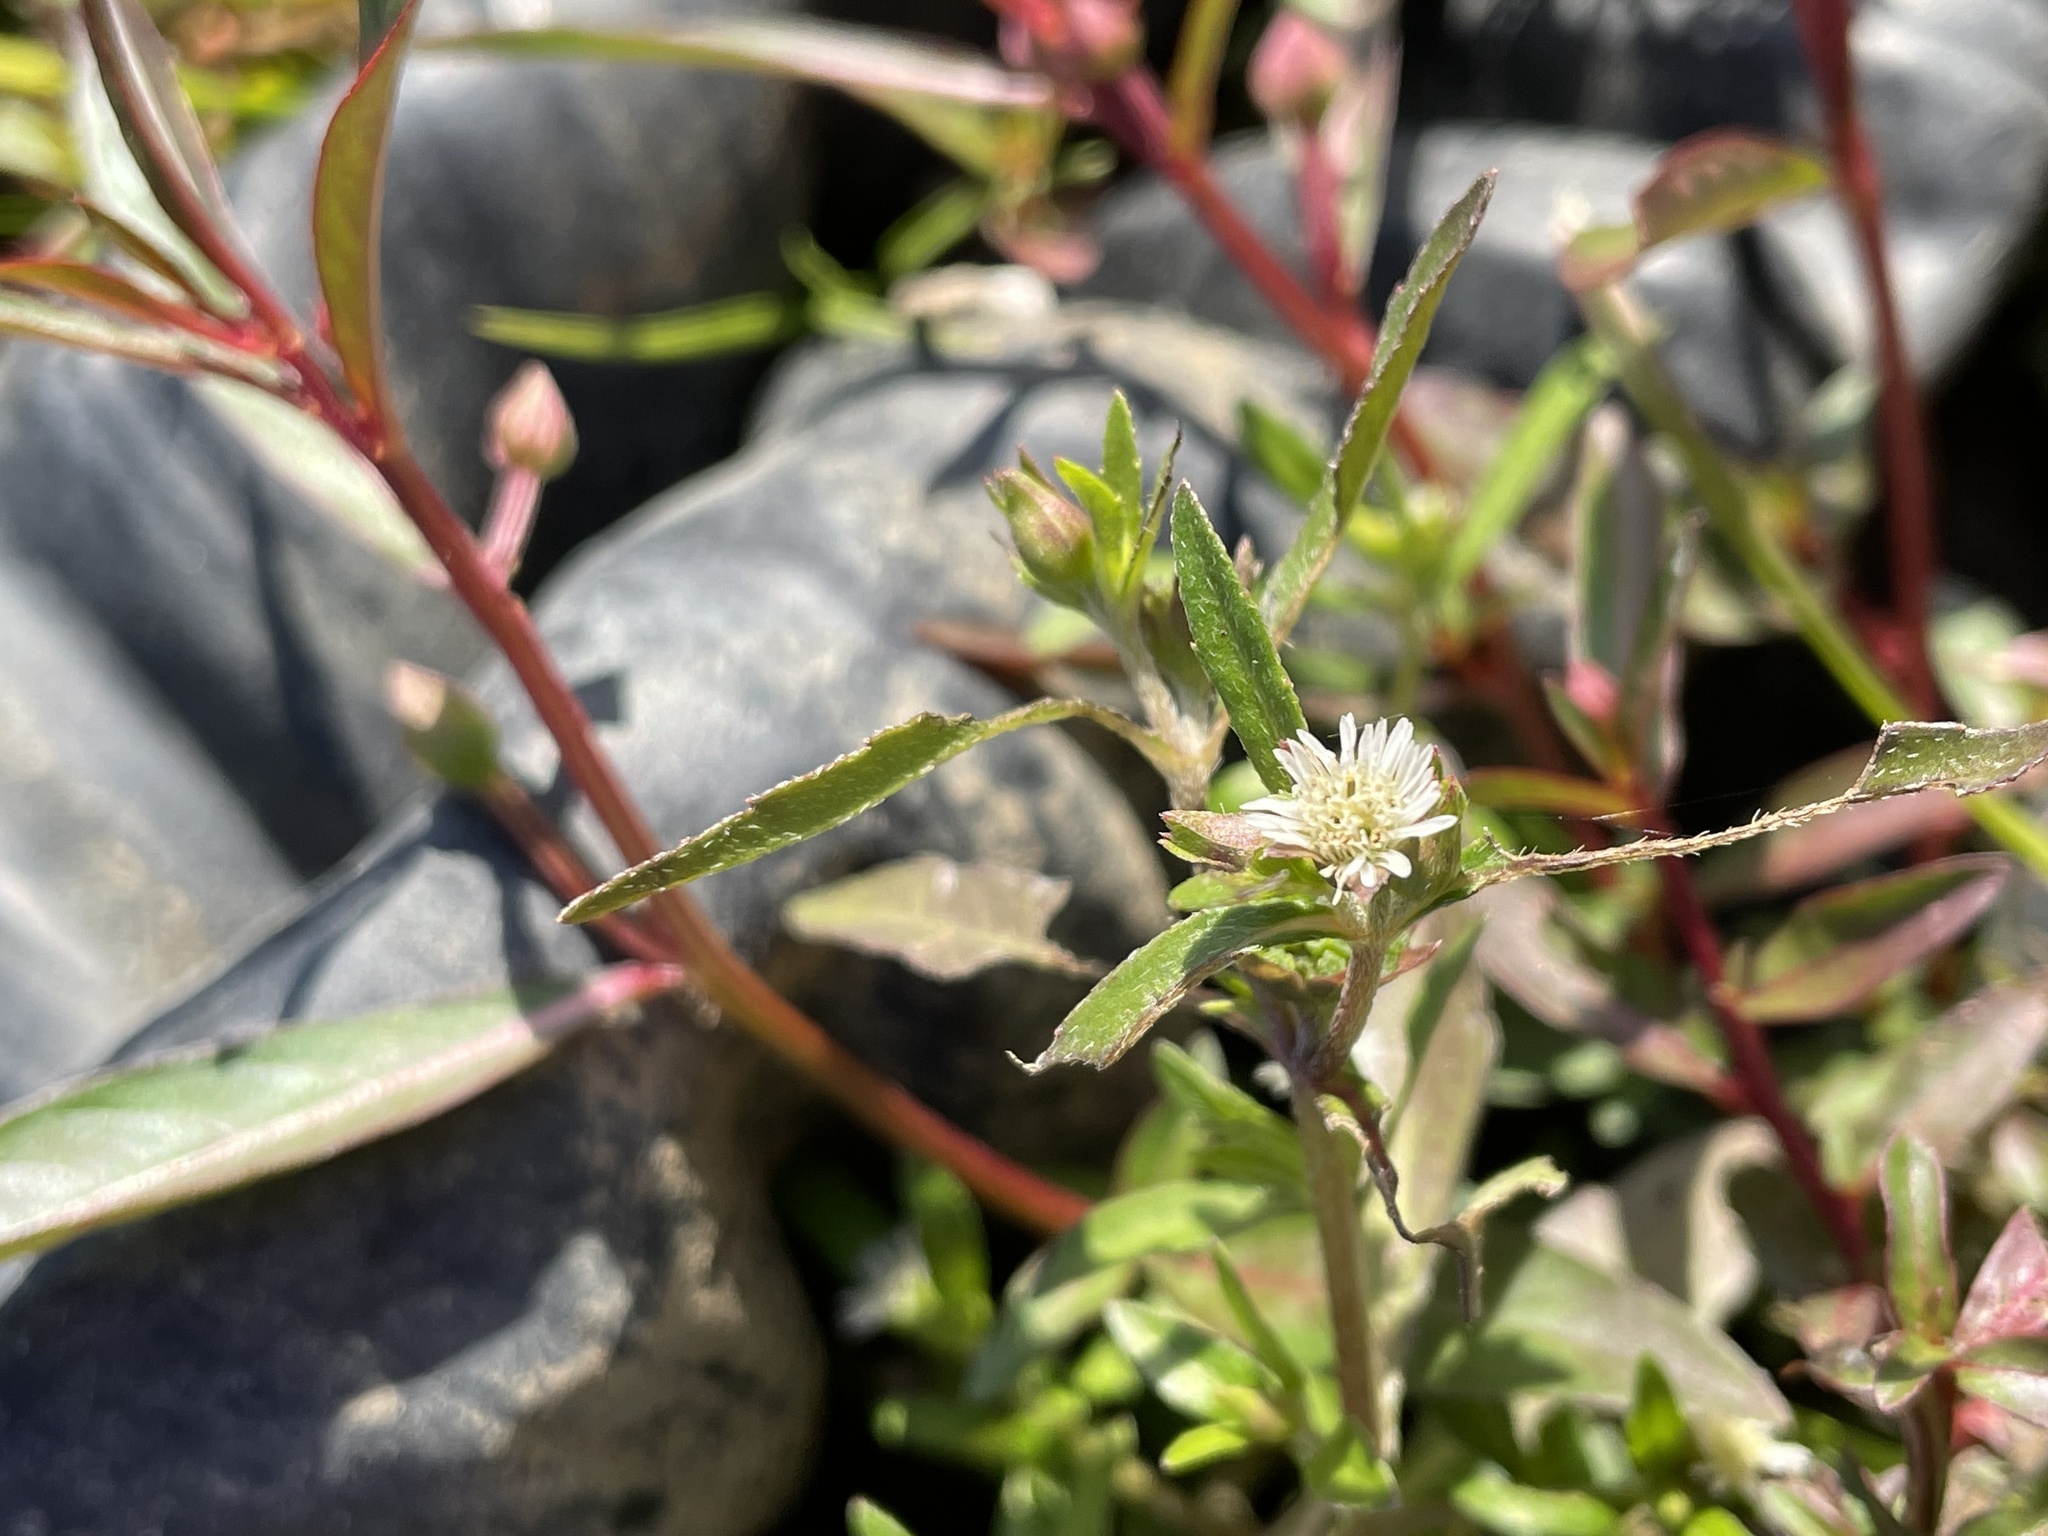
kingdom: Plantae
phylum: Tracheophyta
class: Magnoliopsida
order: Asterales
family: Asteraceae
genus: Eclipta
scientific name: Eclipta prostrata
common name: False daisy
